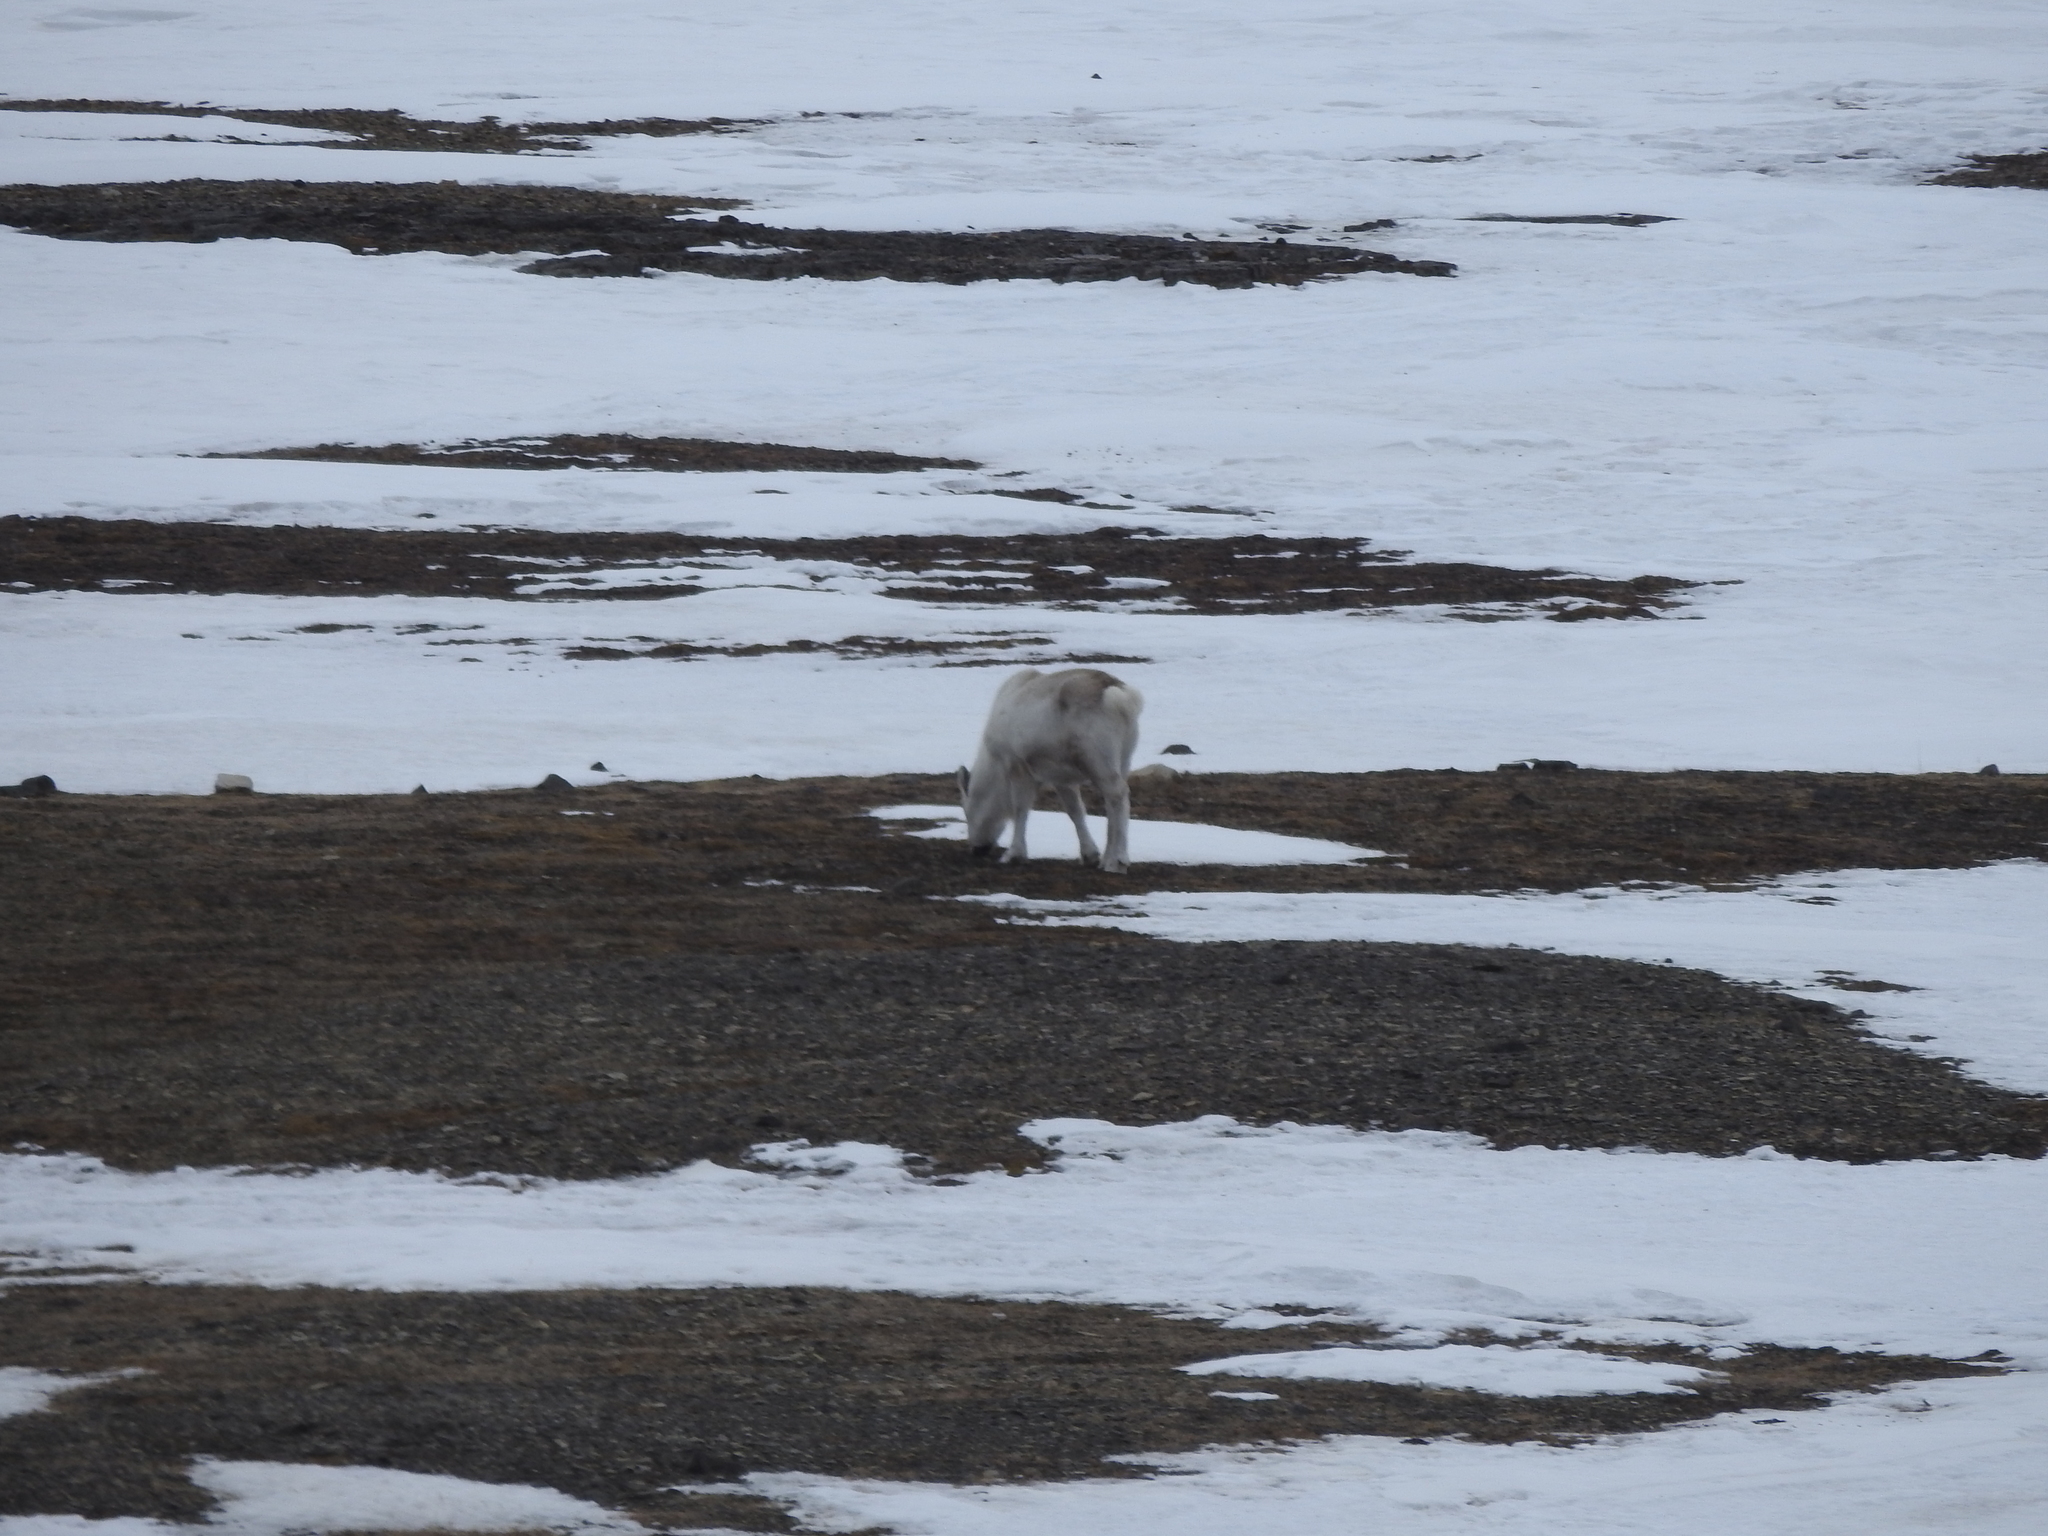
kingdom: Animalia
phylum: Chordata
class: Mammalia
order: Artiodactyla
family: Cervidae
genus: Rangifer
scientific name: Rangifer tarandus
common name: Reindeer
